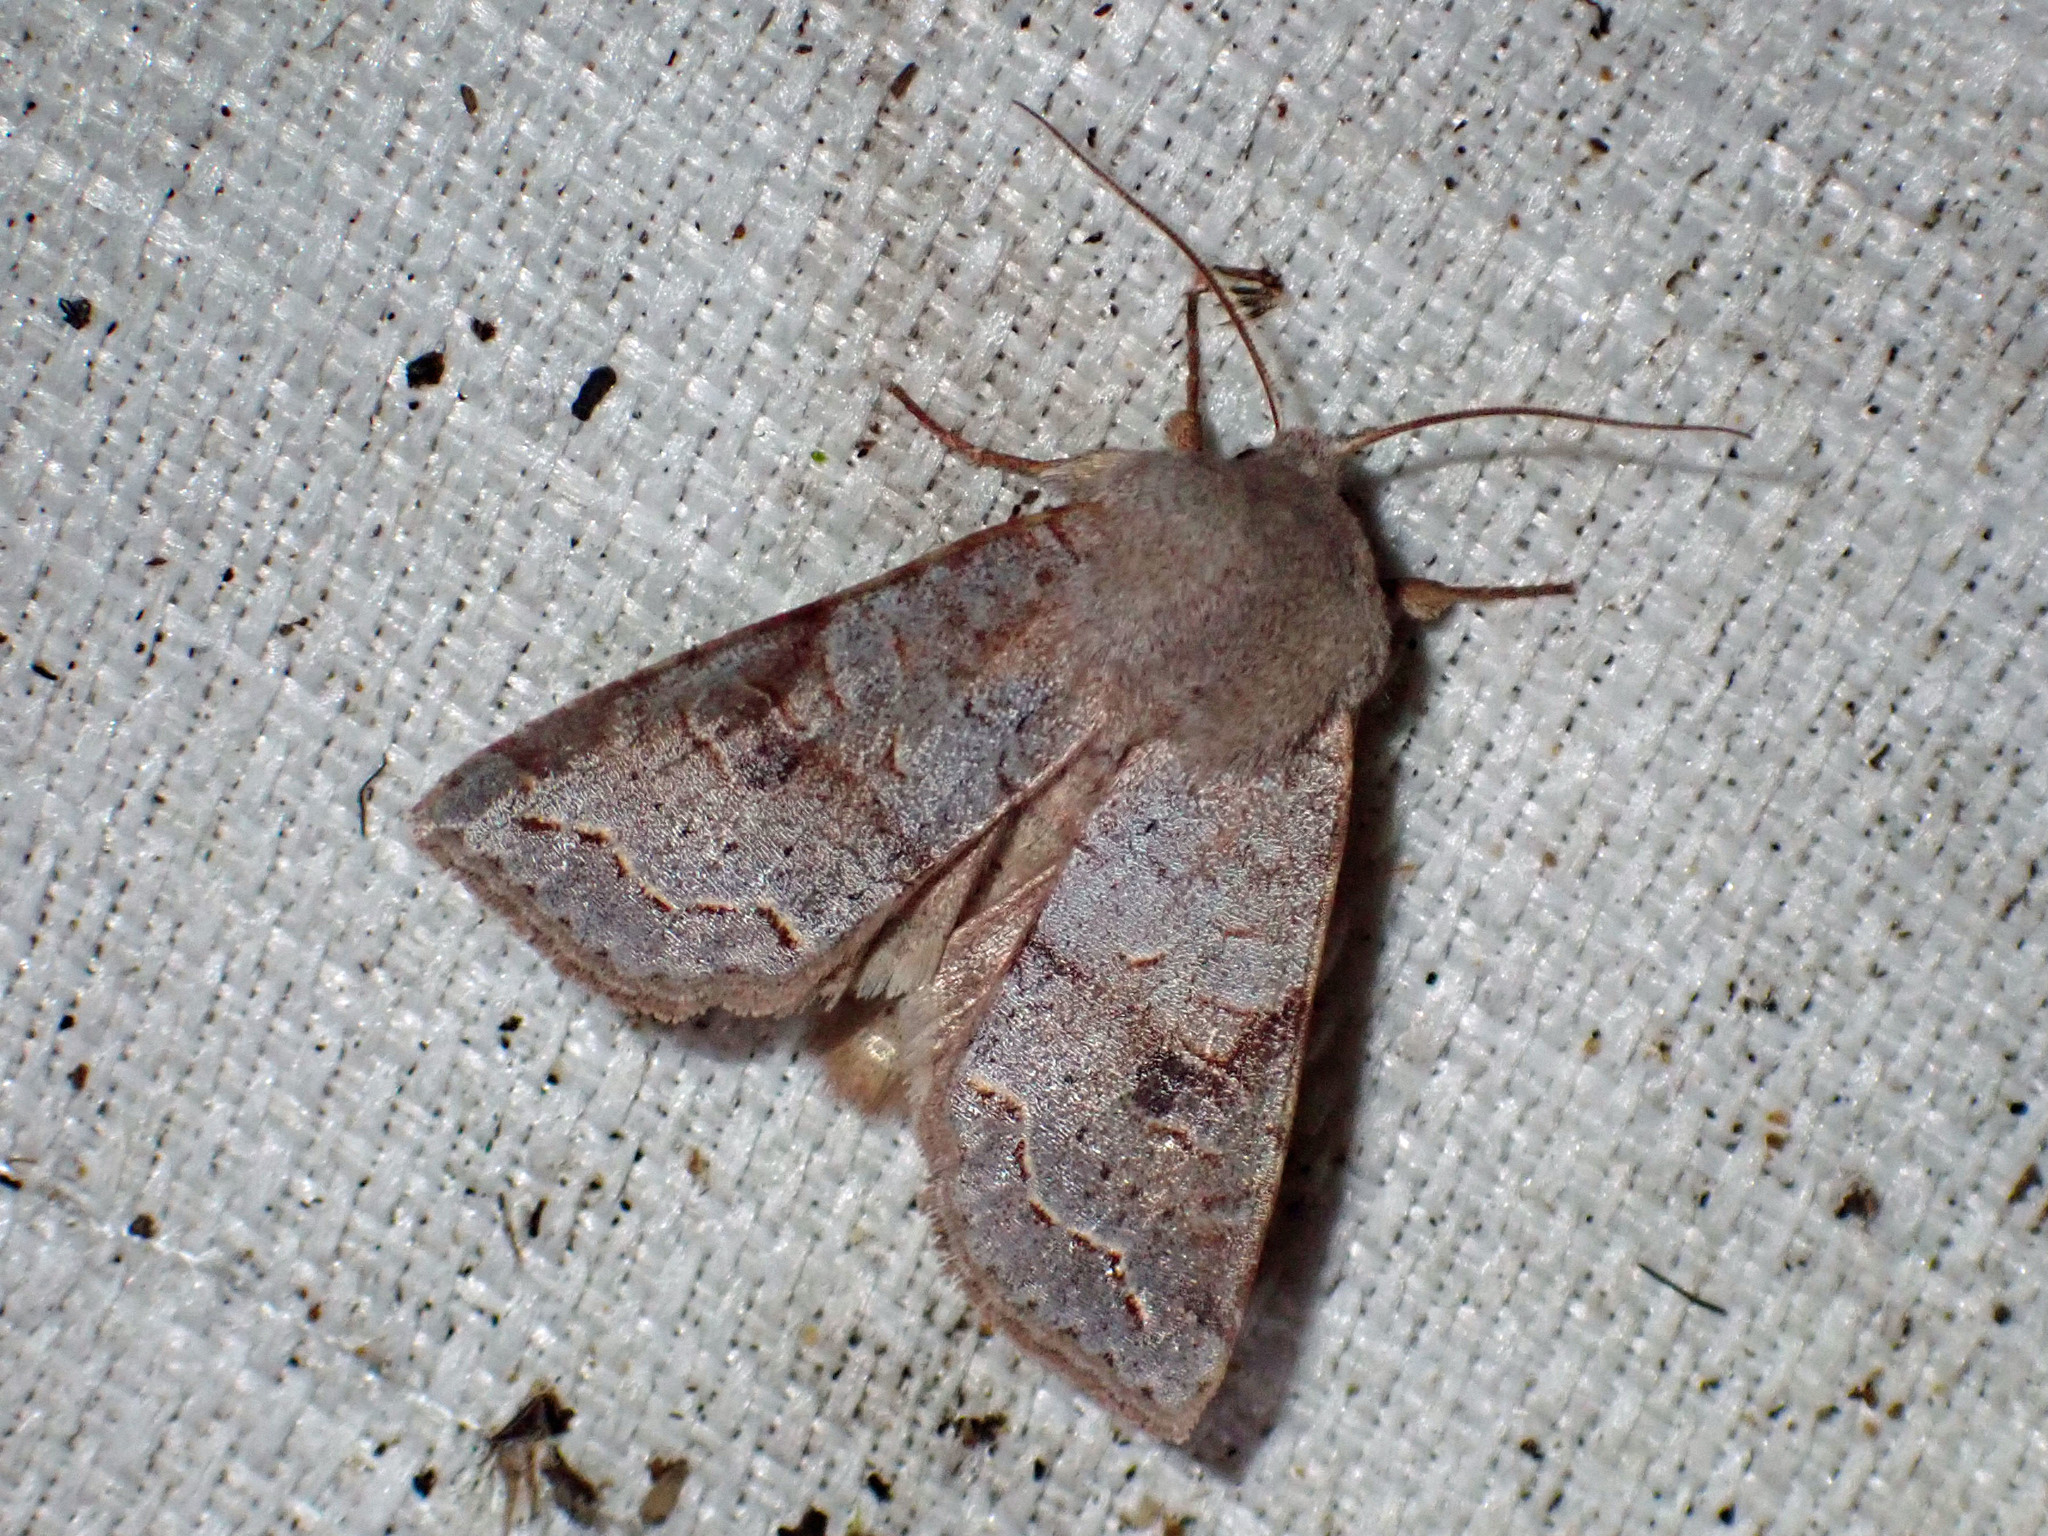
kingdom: Animalia
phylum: Arthropoda
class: Insecta
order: Lepidoptera
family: Noctuidae
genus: Orthosia
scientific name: Orthosia revicta
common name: Rusty whitesided caterpillar
